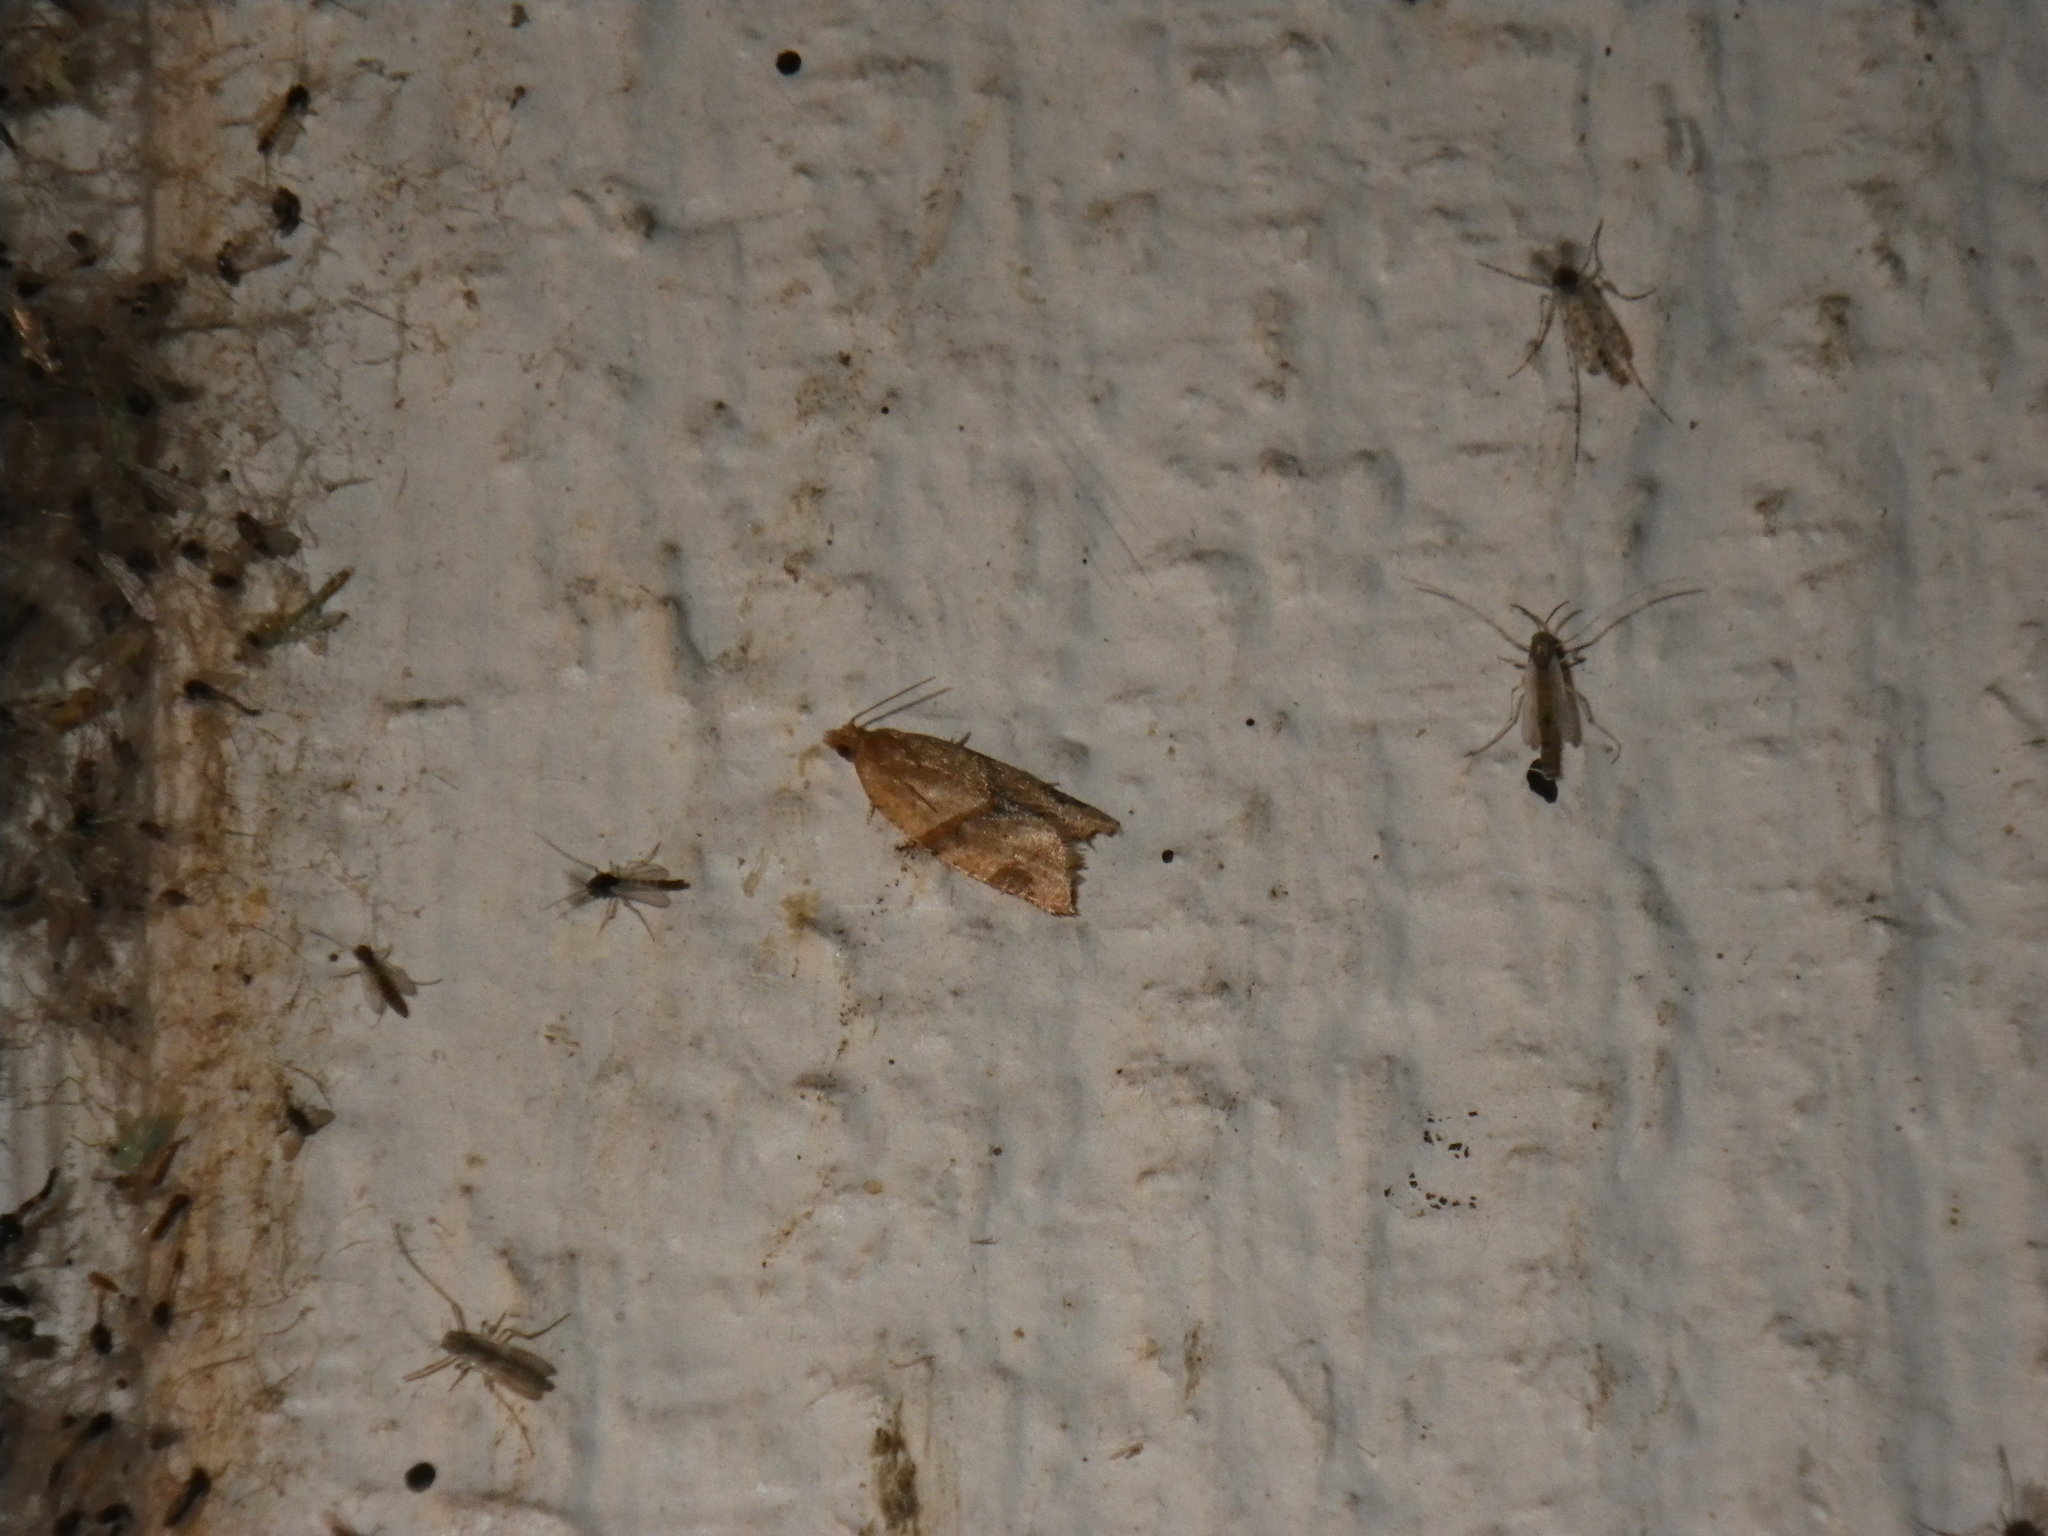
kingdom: Animalia
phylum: Arthropoda
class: Insecta
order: Lepidoptera
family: Tortricidae
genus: Clepsis
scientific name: Clepsis peritana
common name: Garden tortrix
